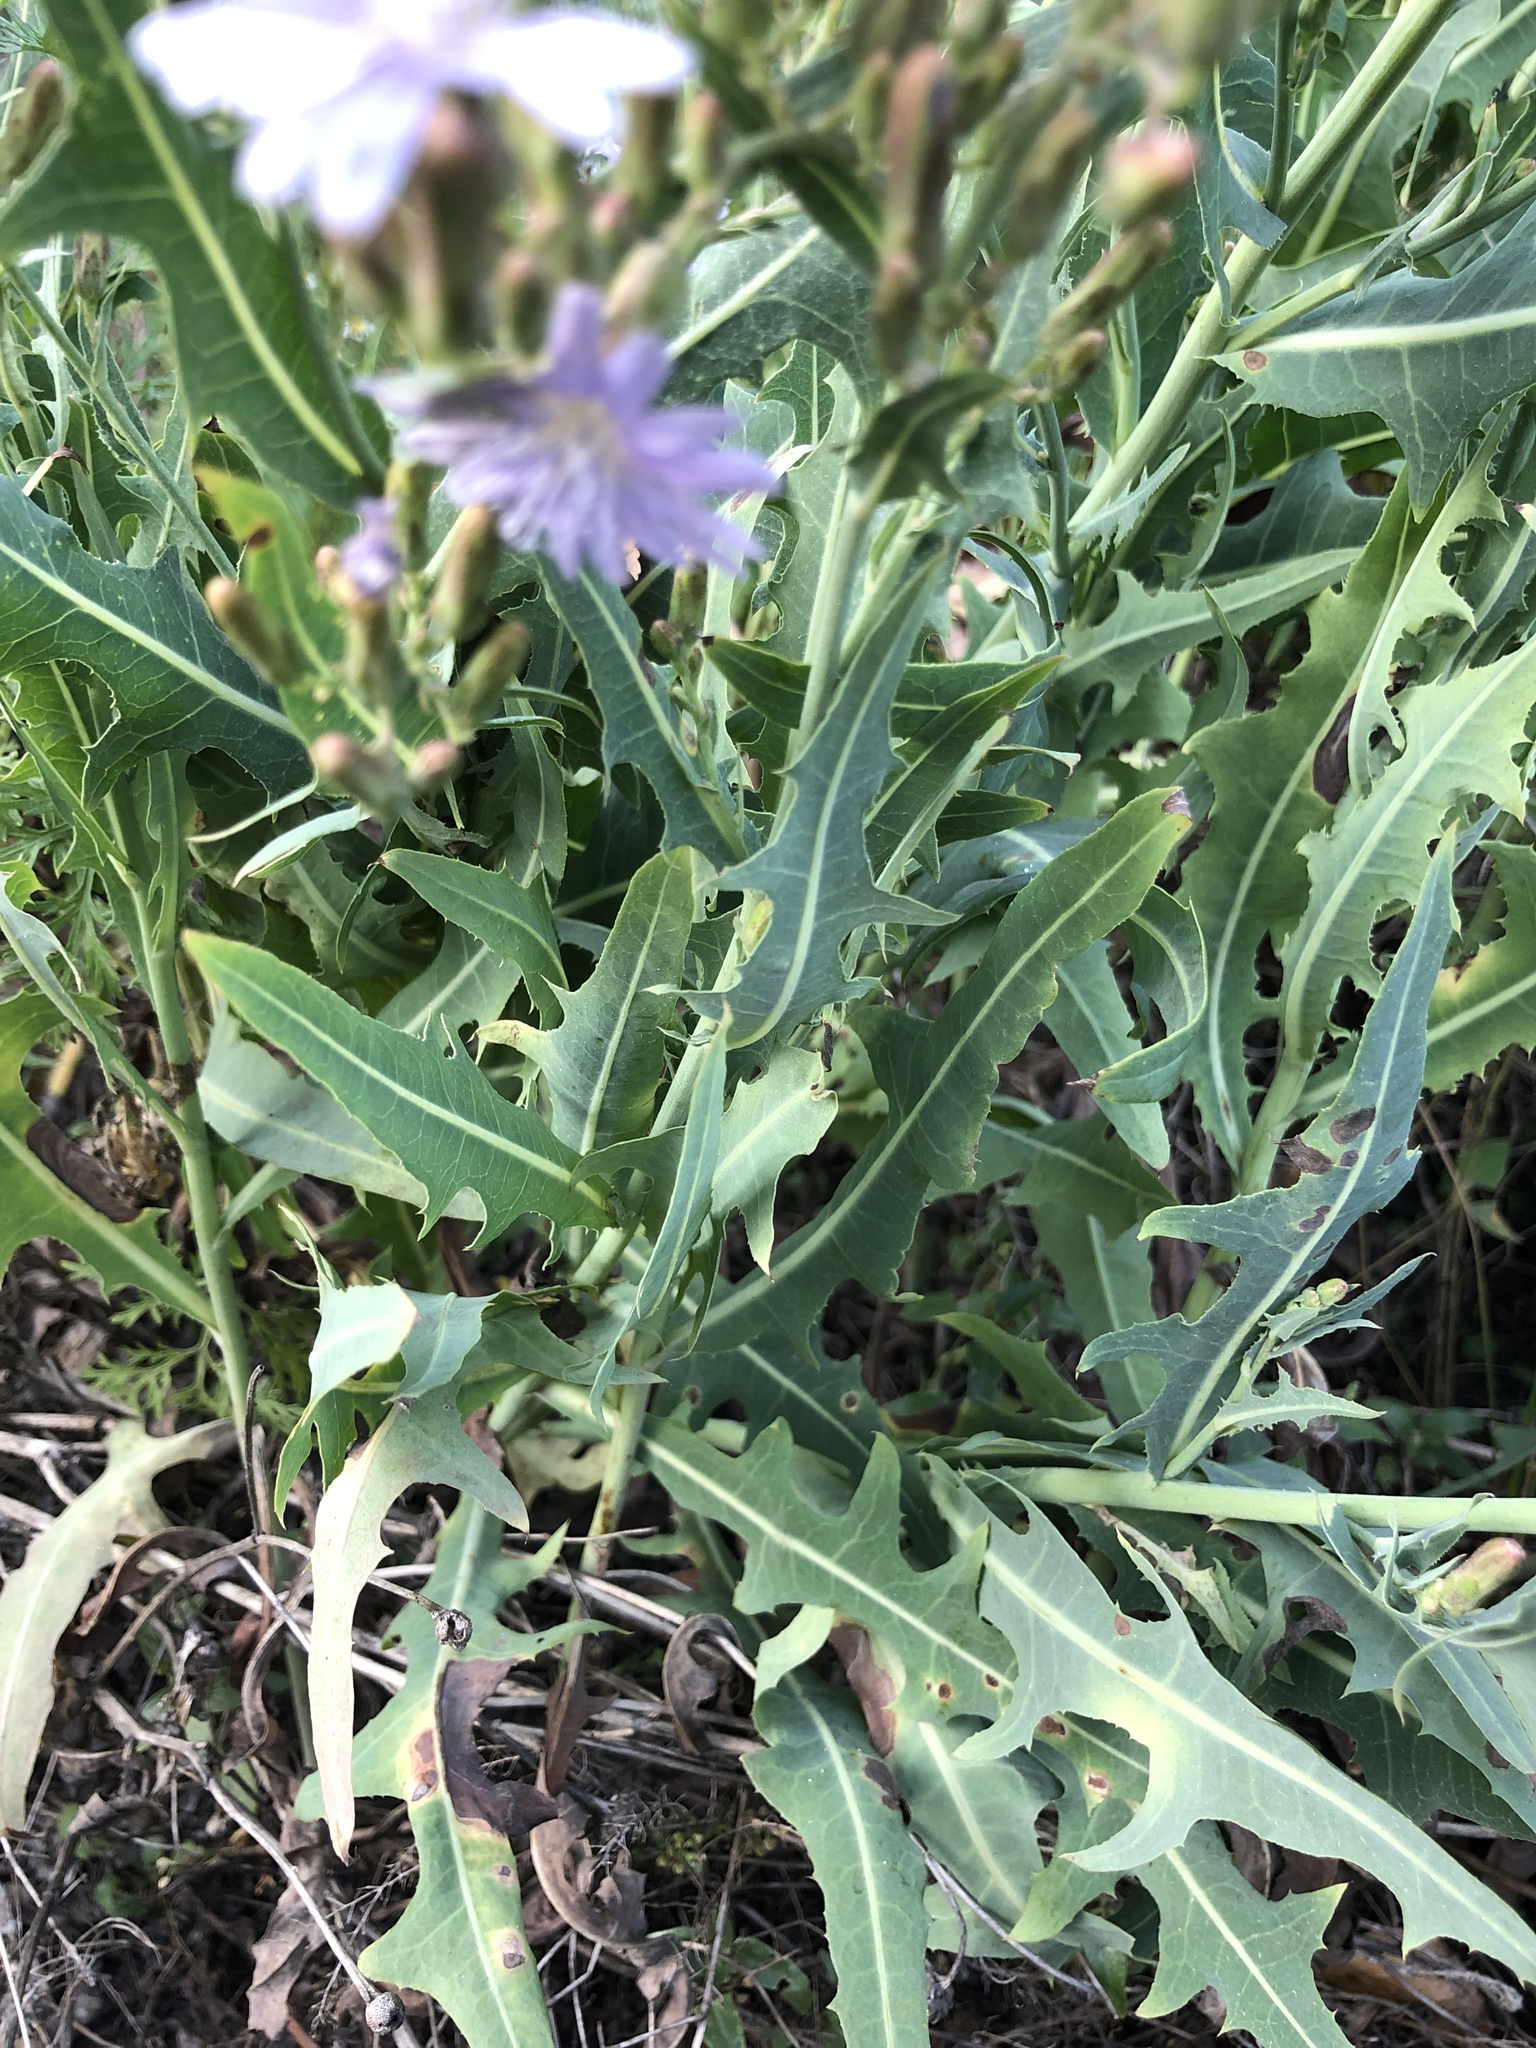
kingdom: Plantae
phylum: Tracheophyta
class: Magnoliopsida
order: Asterales
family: Asteraceae
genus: Lactuca
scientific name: Lactuca tatarica
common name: Blue lettuce
